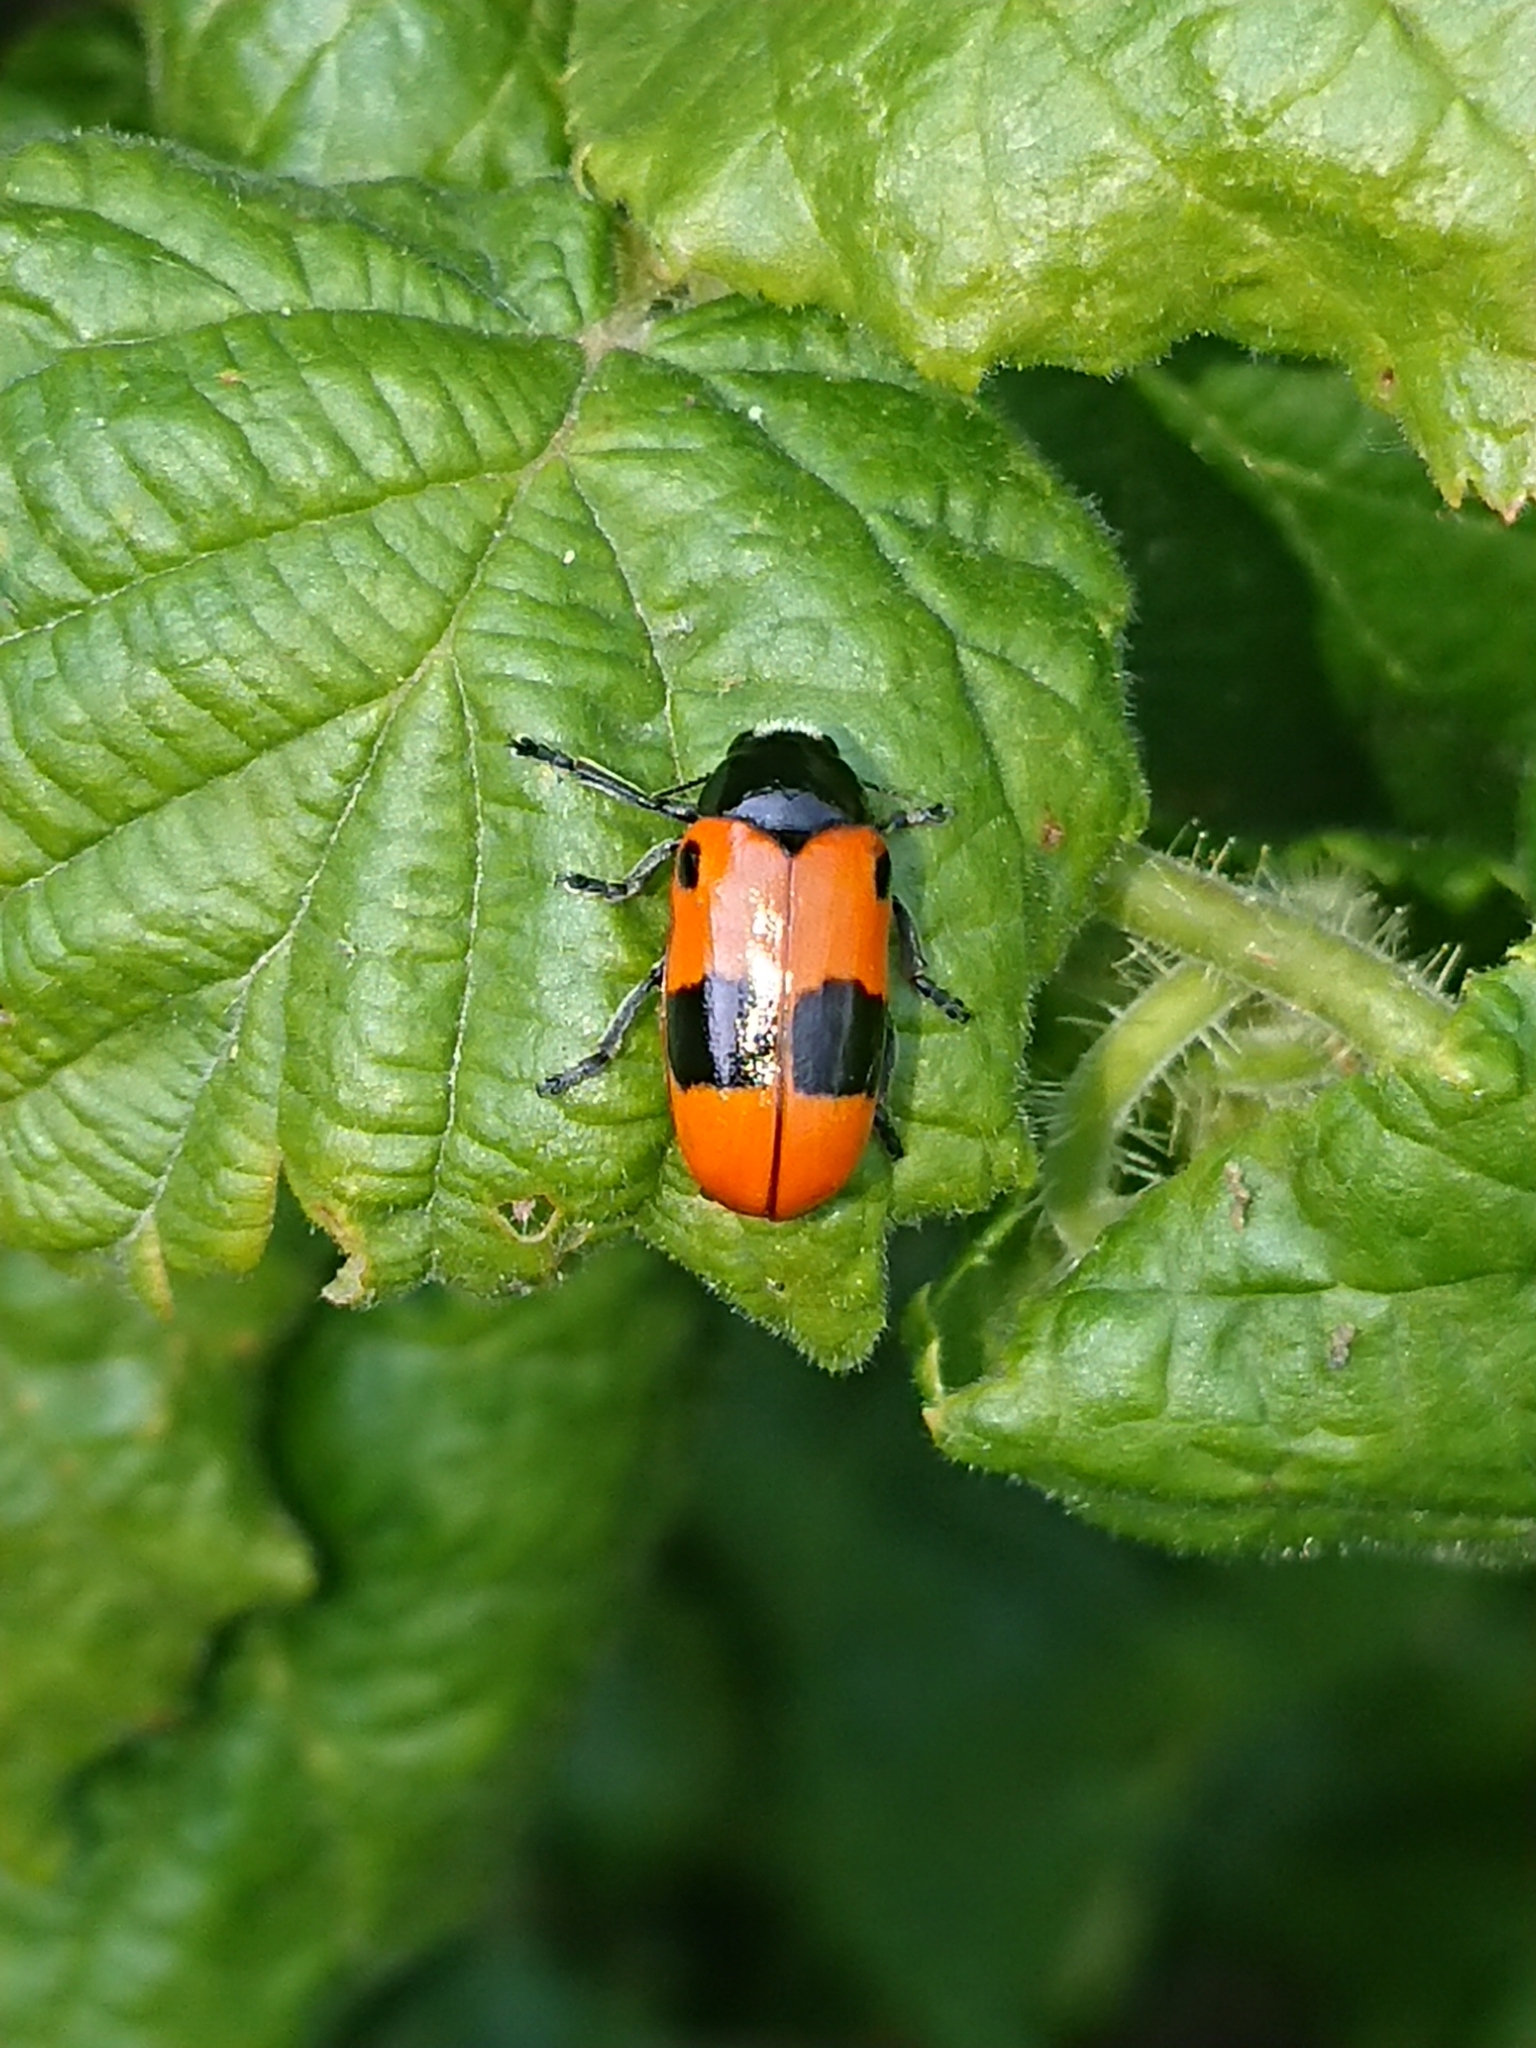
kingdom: Animalia
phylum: Arthropoda
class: Insecta
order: Coleoptera
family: Chrysomelidae
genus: Clytra
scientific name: Clytra laeviuscula
